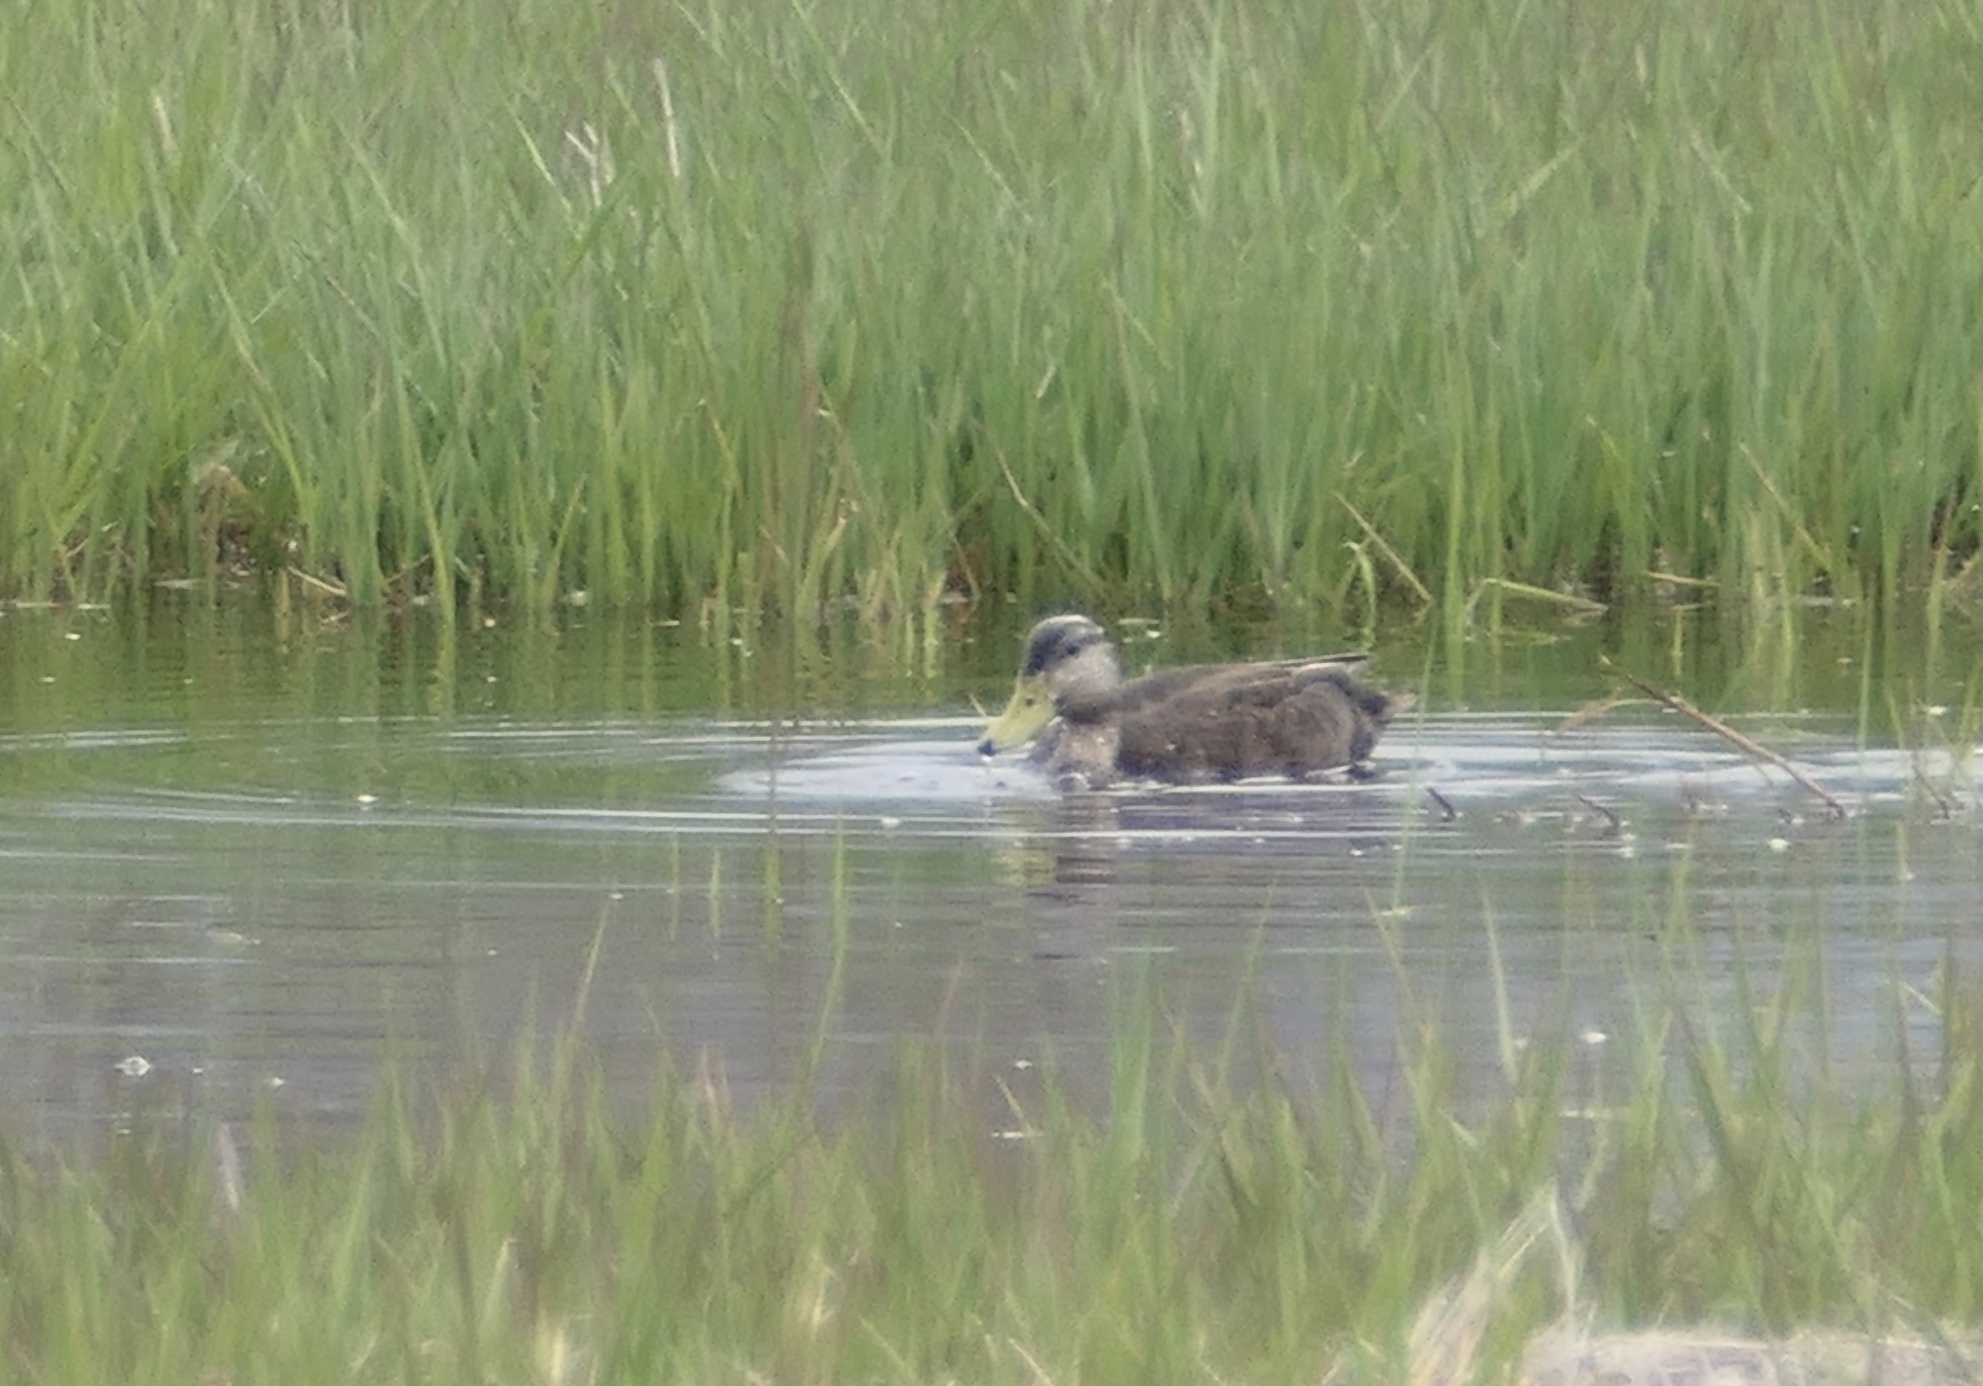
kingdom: Animalia
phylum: Chordata
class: Aves
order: Anseriformes
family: Anatidae
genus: Anas
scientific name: Anas rubripes
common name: American black duck
